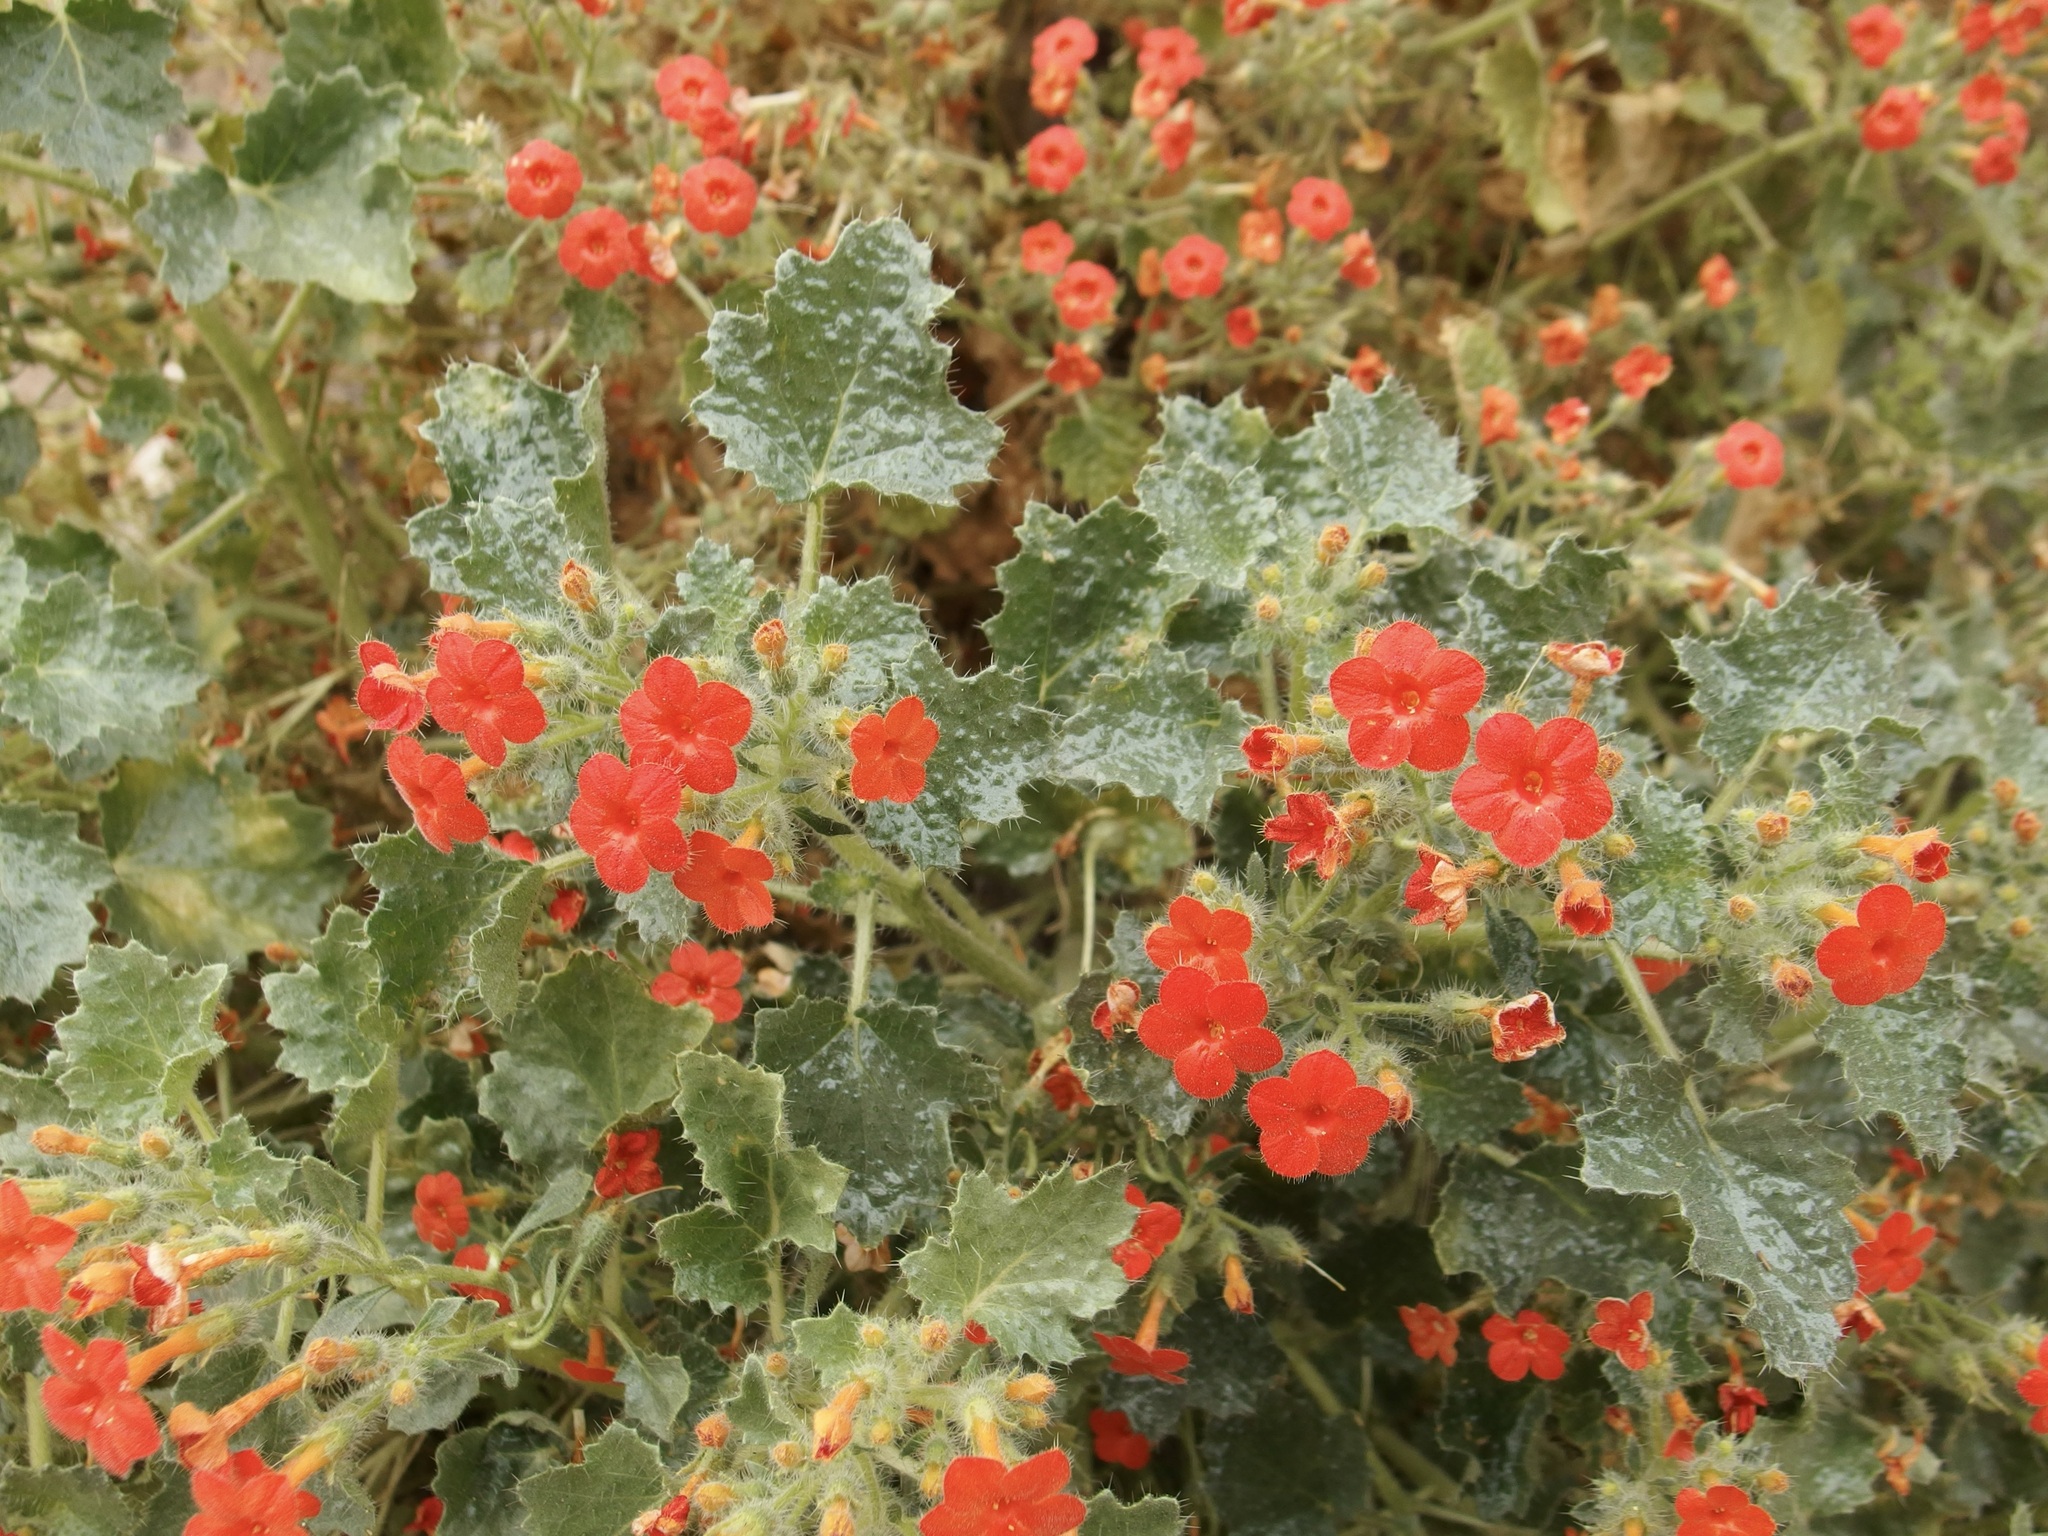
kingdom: Plantae
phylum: Tracheophyta
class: Magnoliopsida
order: Cornales
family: Loasaceae
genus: Eucnide
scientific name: Eucnide aurea
